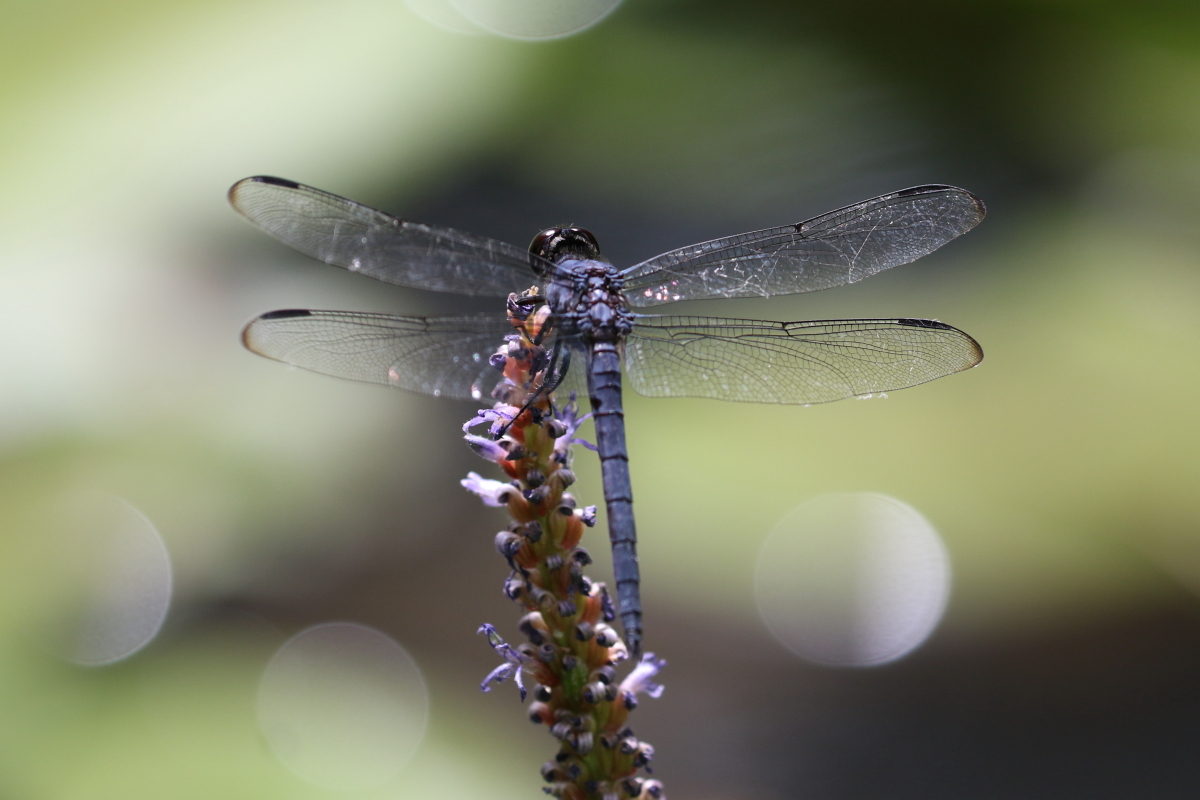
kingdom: Animalia
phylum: Arthropoda
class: Insecta
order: Odonata
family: Libellulidae
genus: Libellula
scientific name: Libellula incesta
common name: Slaty skimmer
